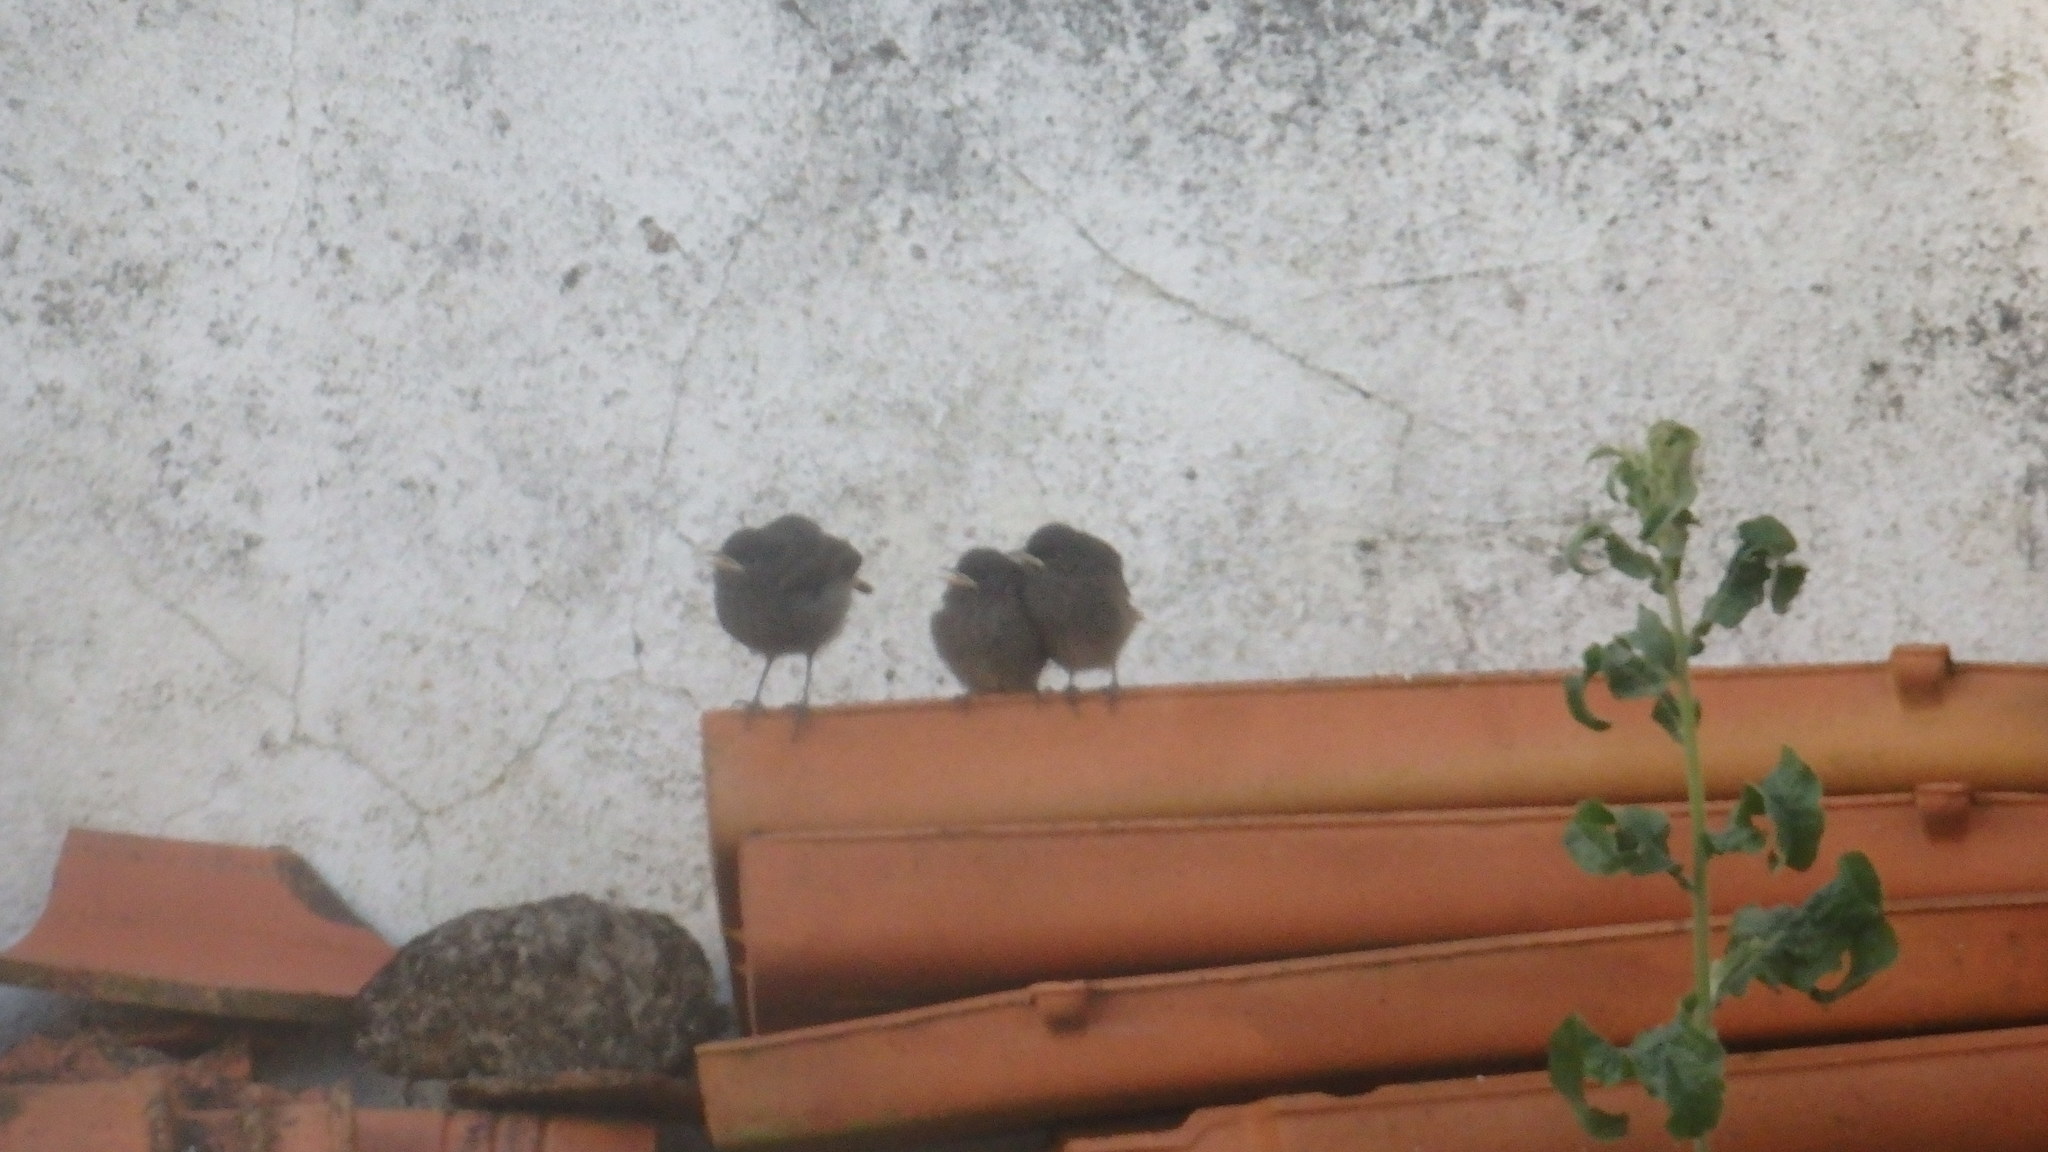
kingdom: Animalia
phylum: Chordata
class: Aves
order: Passeriformes
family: Muscicapidae
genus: Phoenicurus
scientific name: Phoenicurus ochruros
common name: Black redstart
